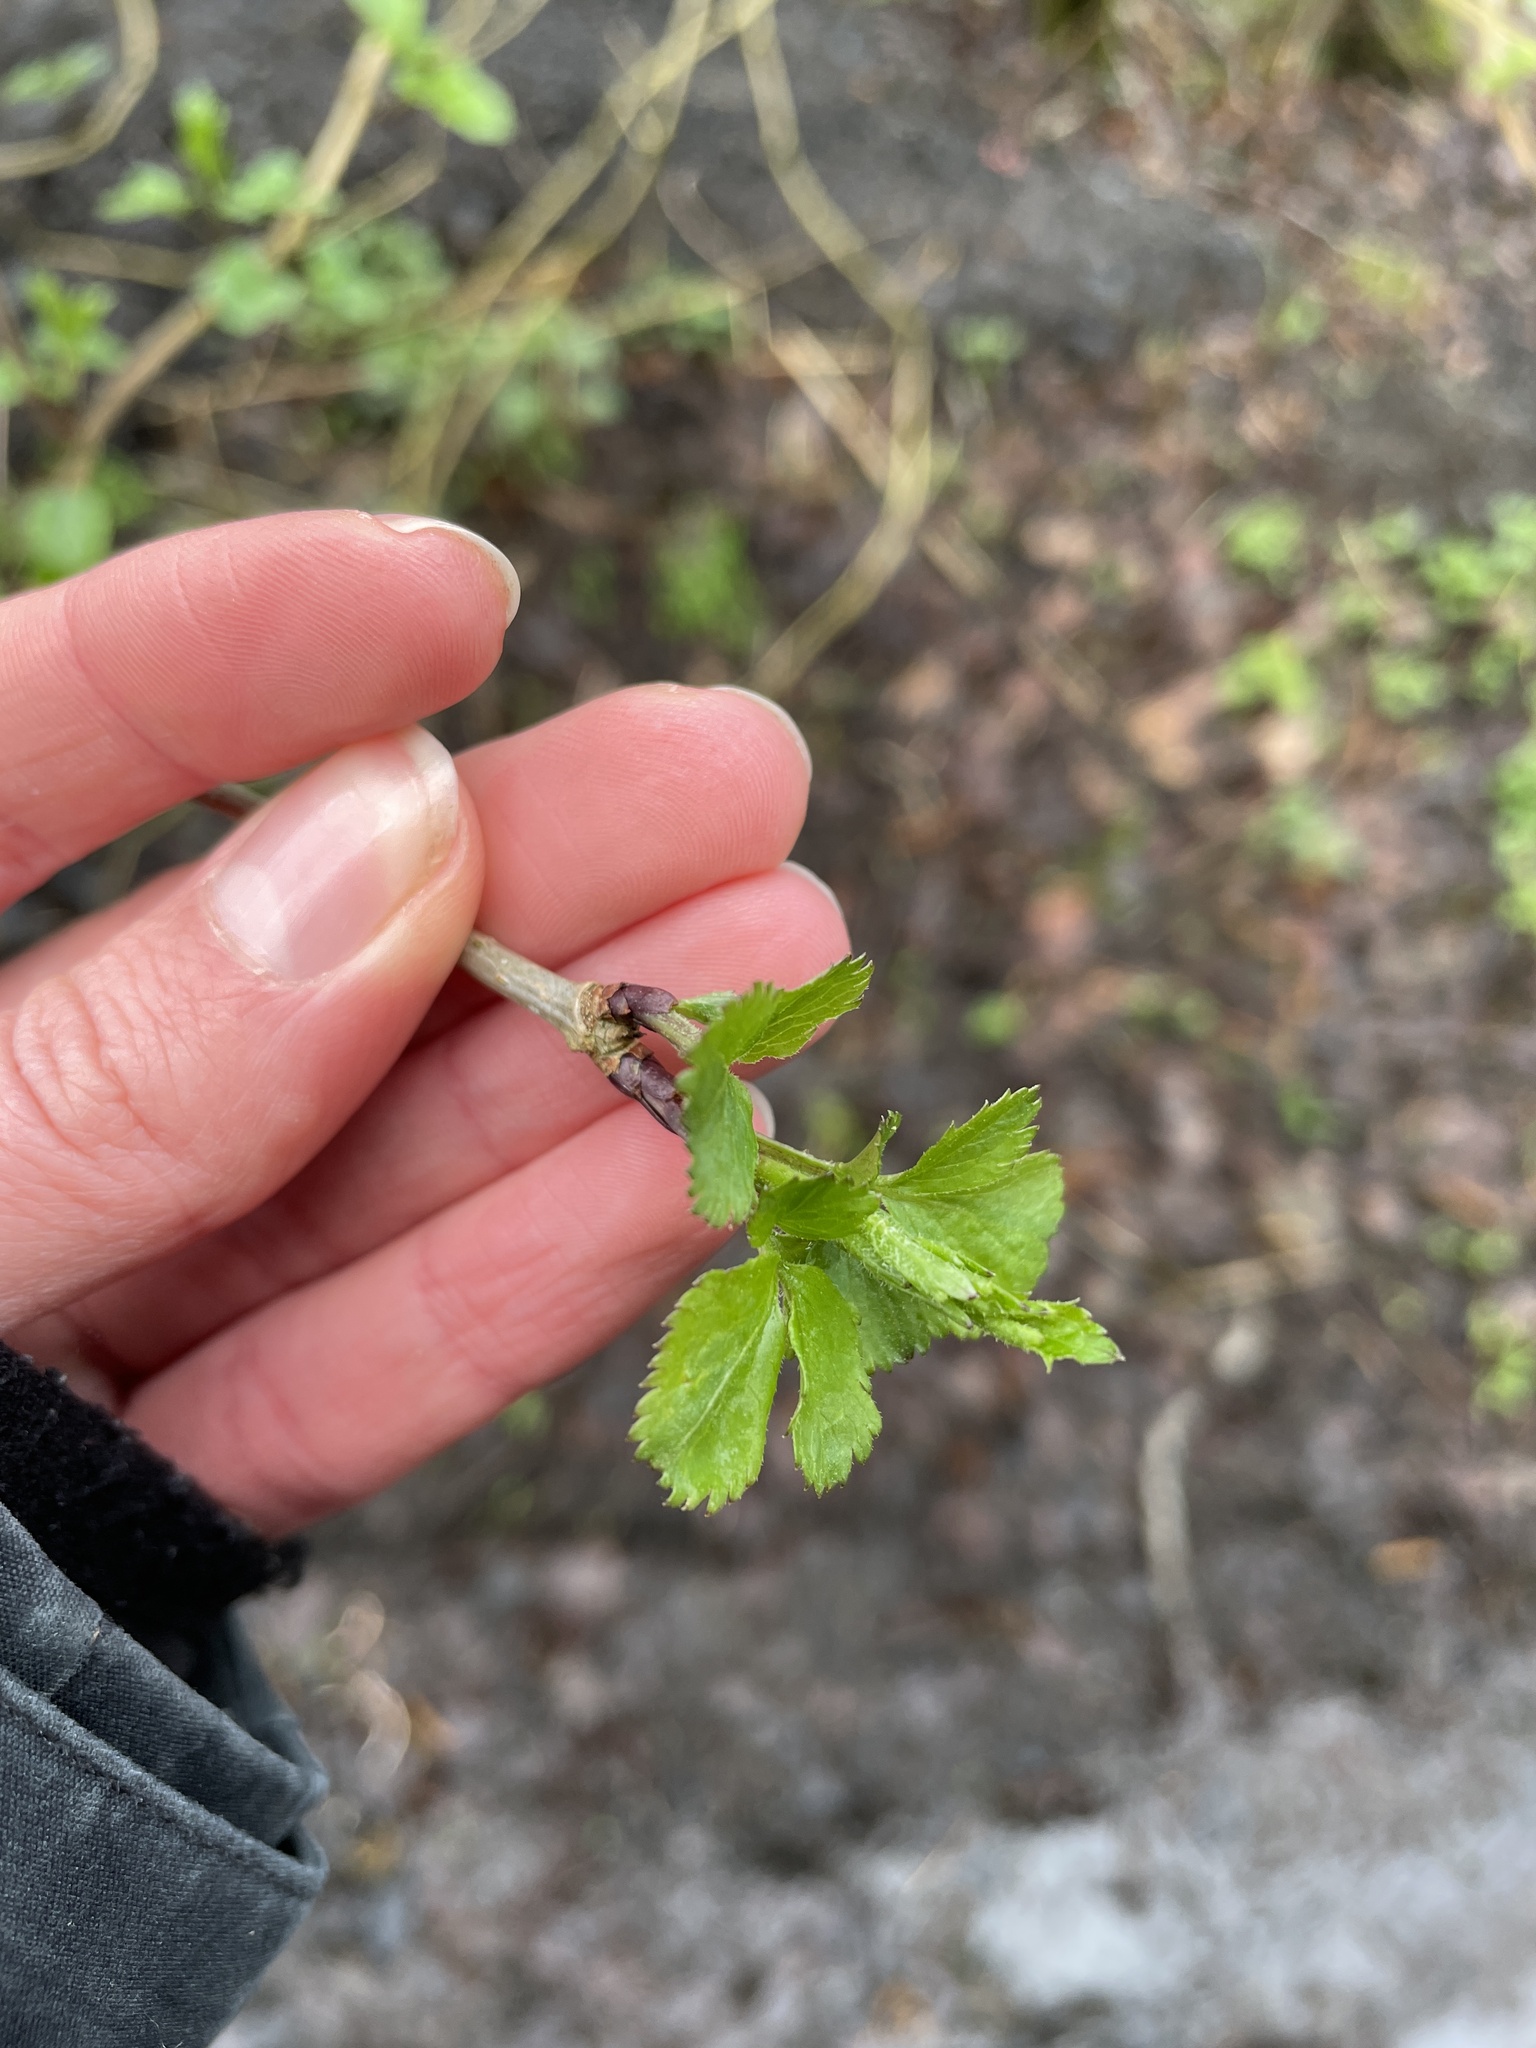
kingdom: Plantae
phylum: Tracheophyta
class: Magnoliopsida
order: Dipsacales
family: Viburnaceae
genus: Sambucus
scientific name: Sambucus nigra
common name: Elder
